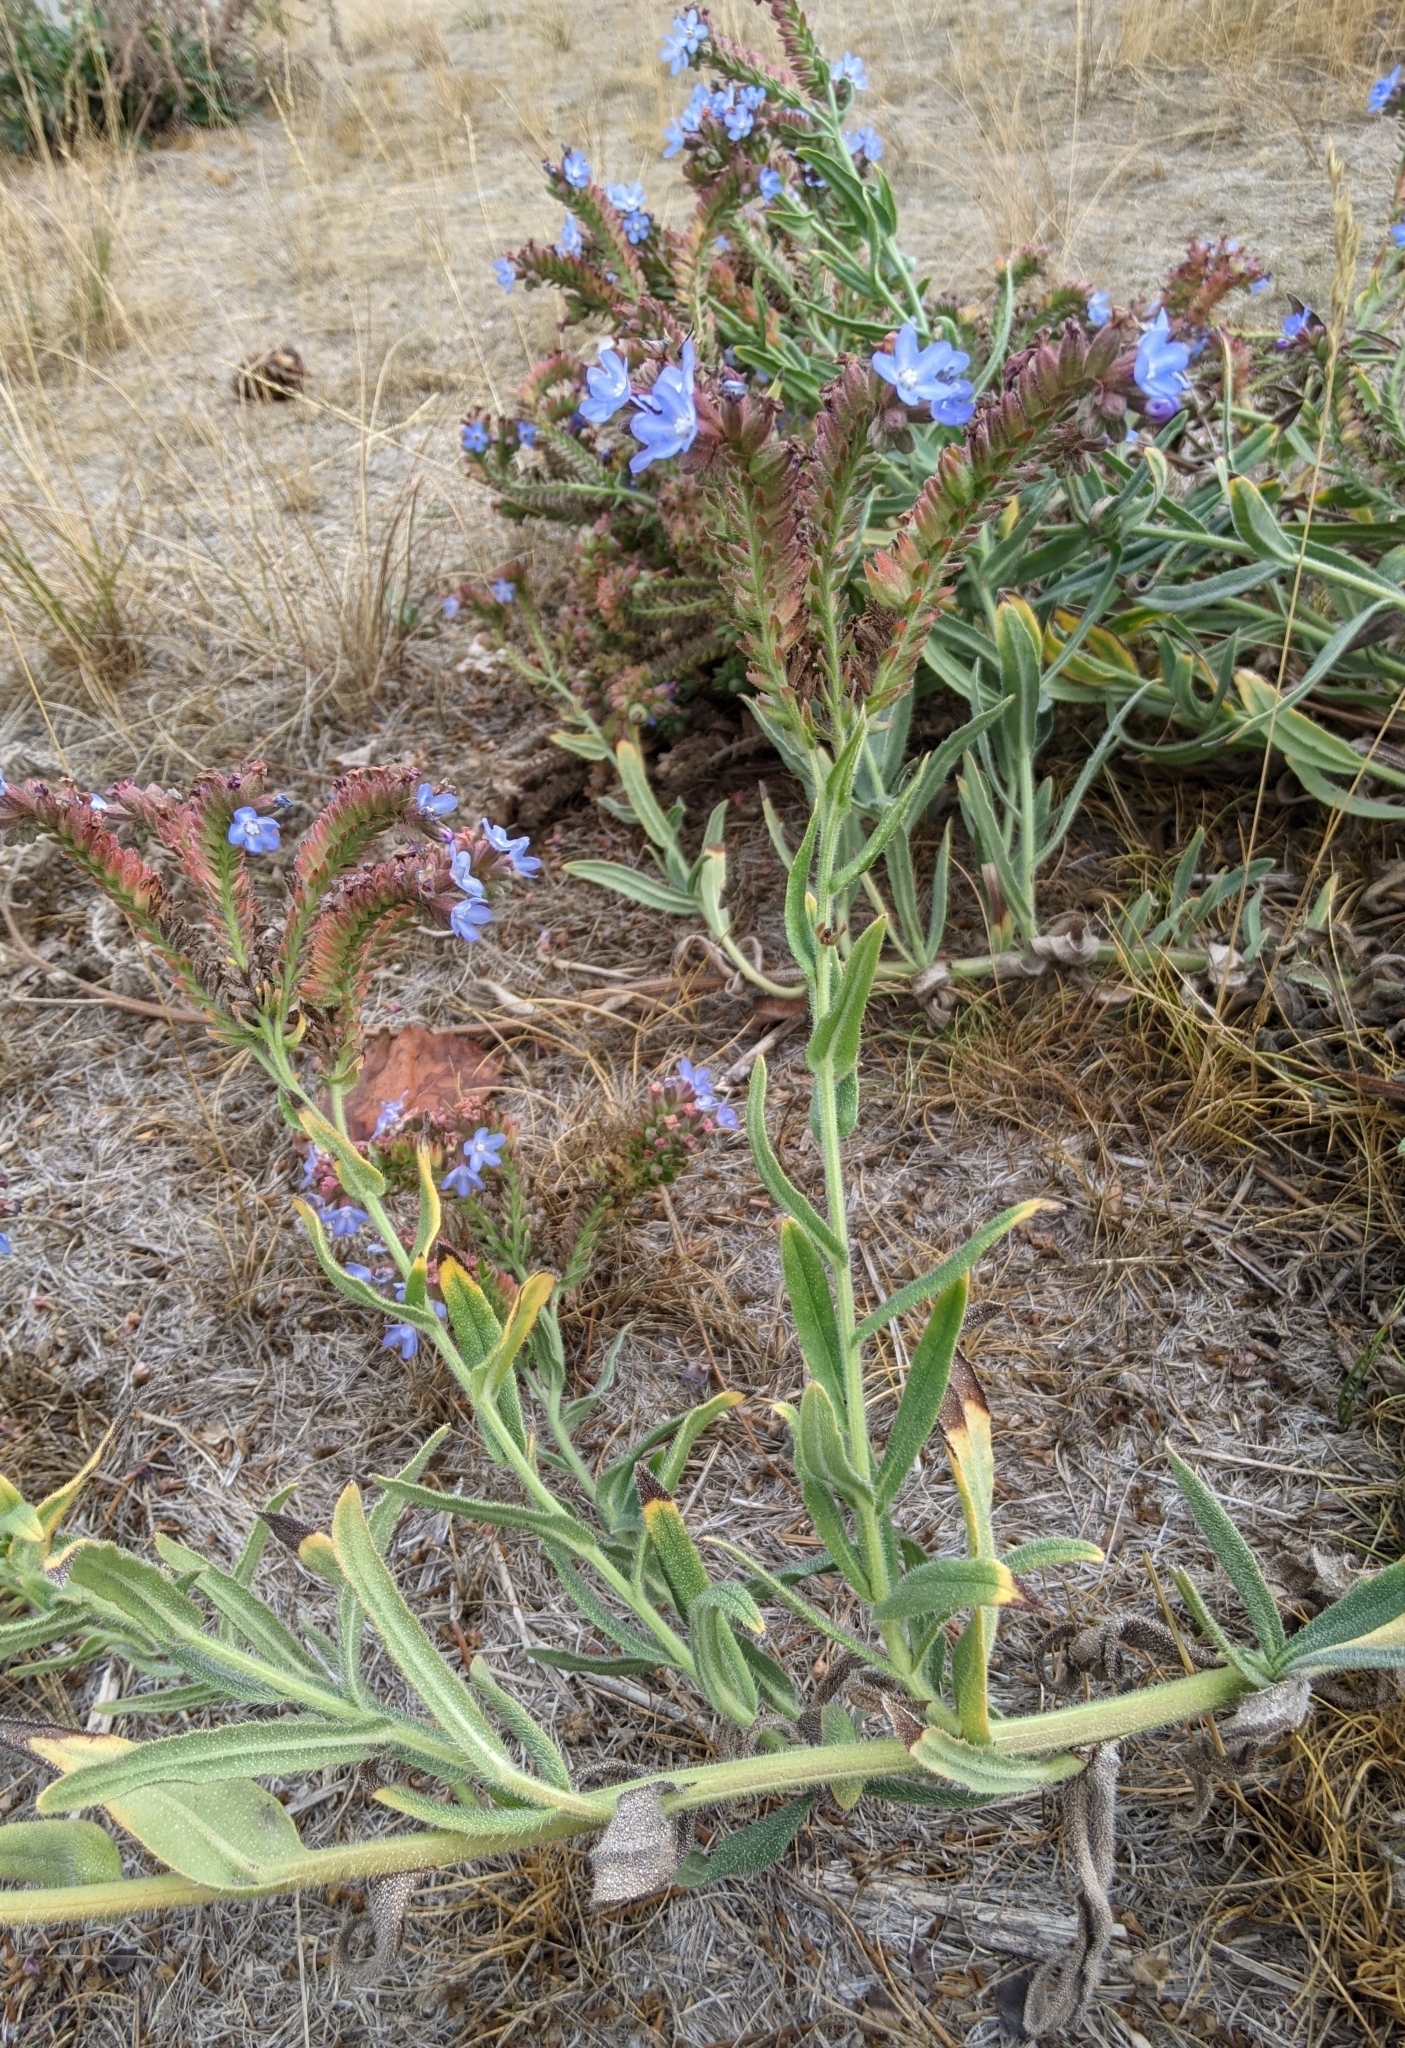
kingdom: Plantae
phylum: Tracheophyta
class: Magnoliopsida
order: Boraginales
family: Boraginaceae
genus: Anchusa
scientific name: Anchusa officinalis
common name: Alkanet
